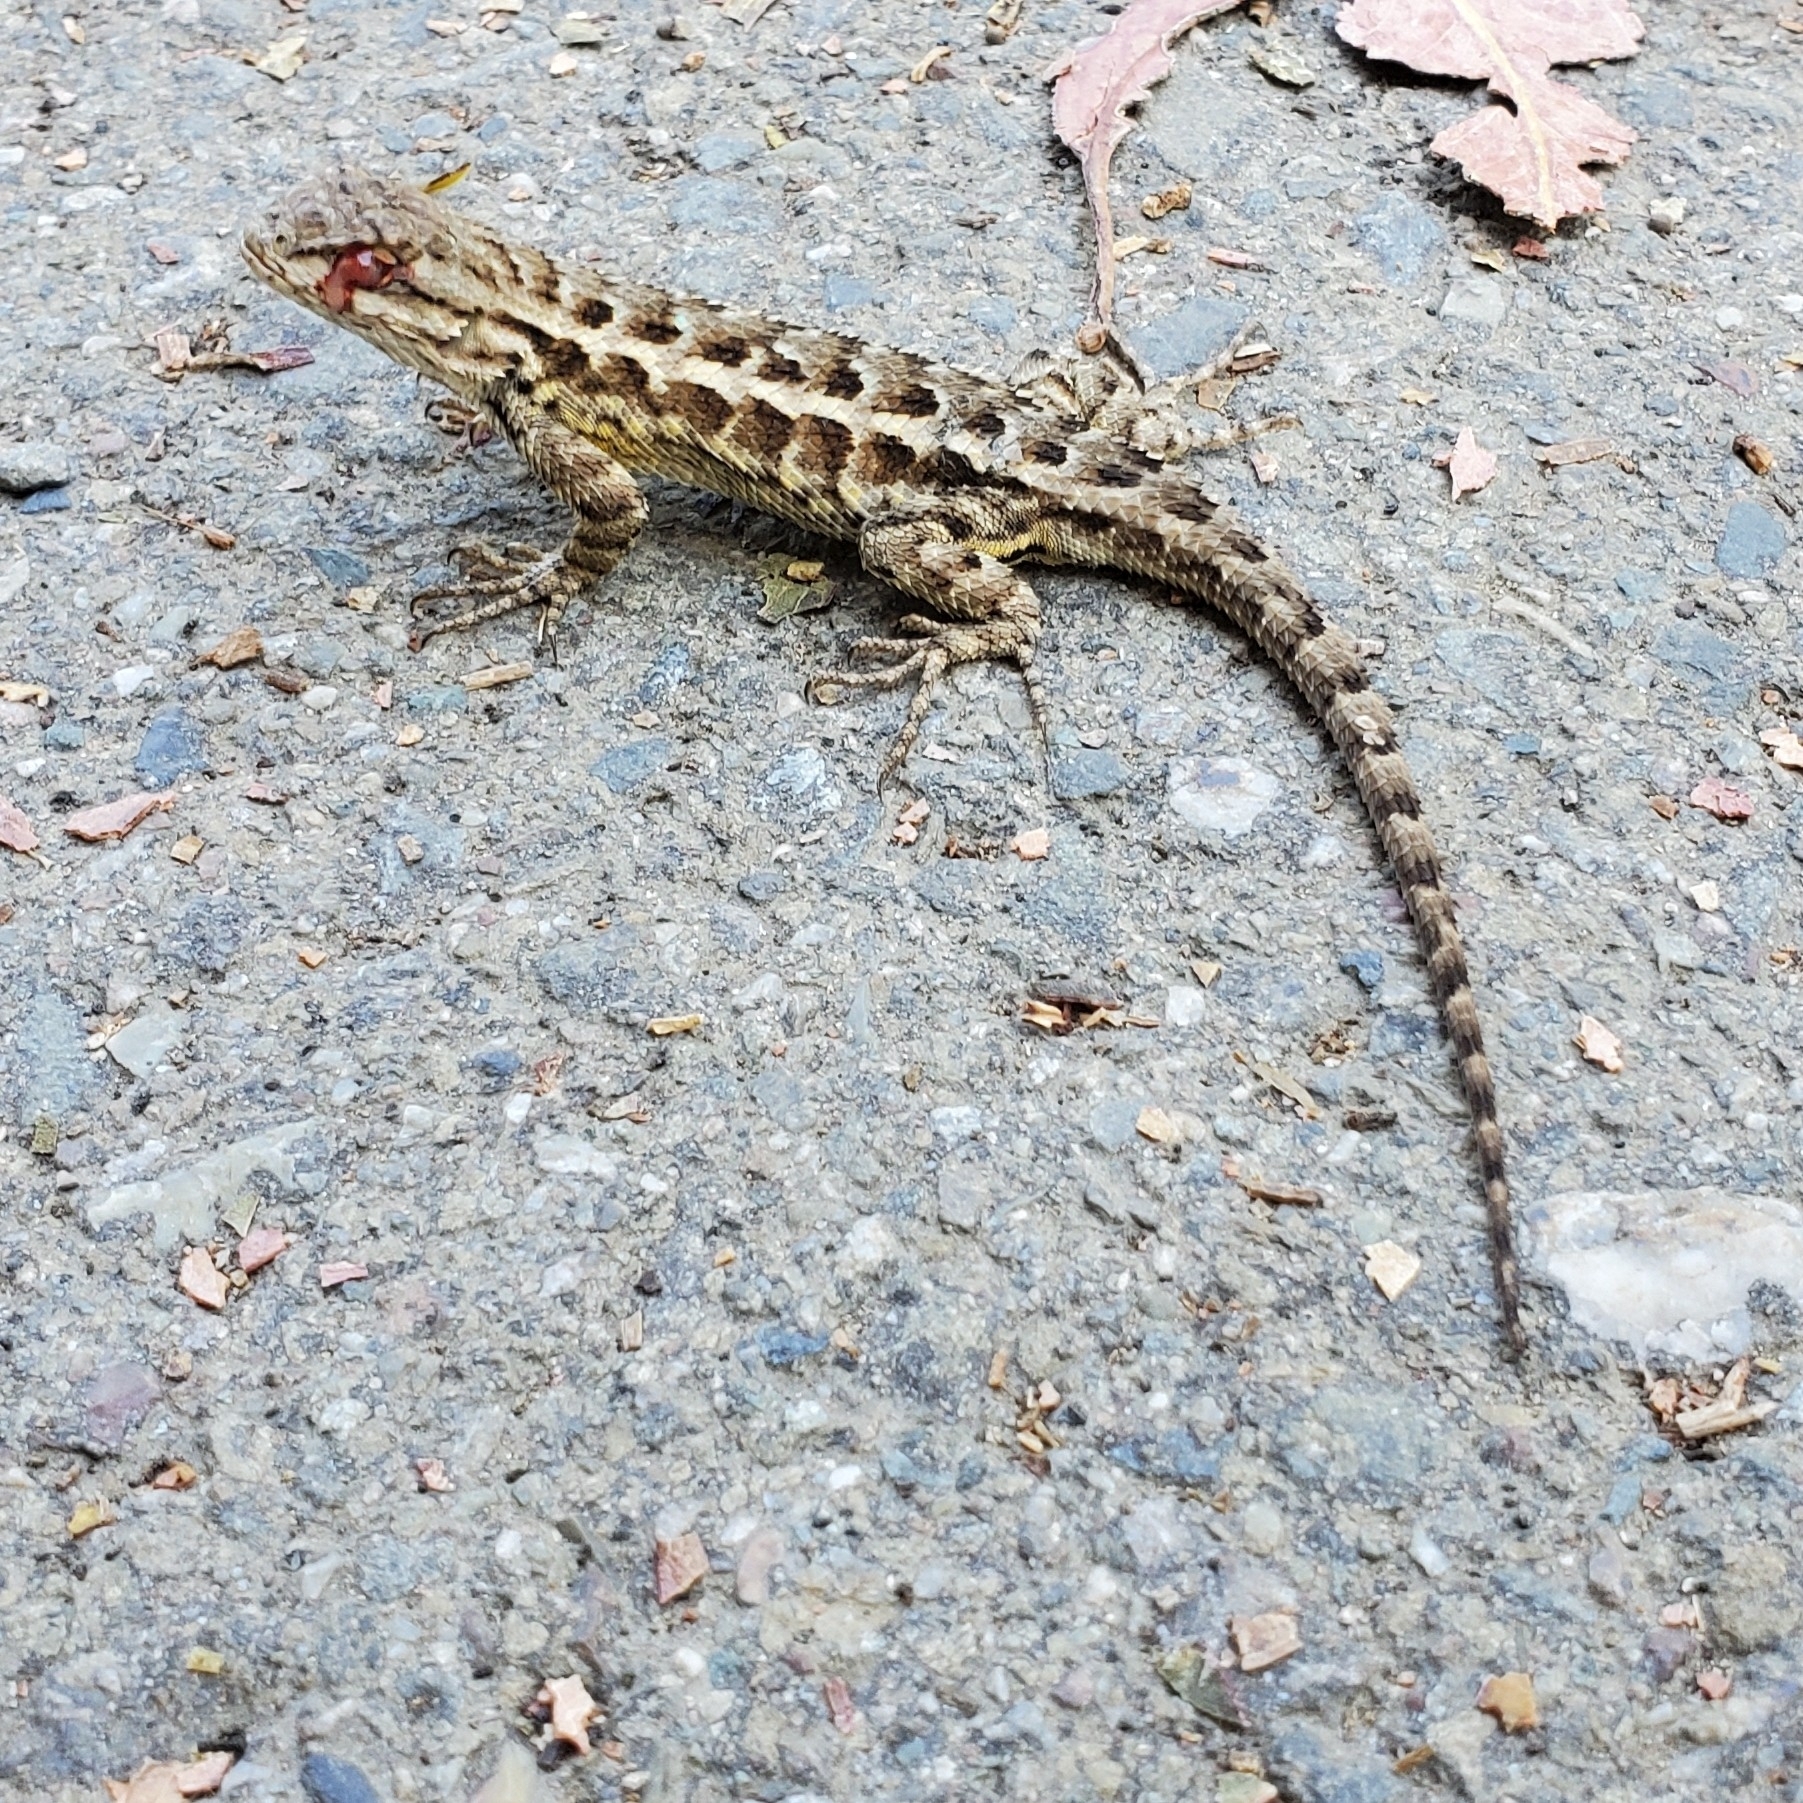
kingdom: Animalia
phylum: Chordata
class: Squamata
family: Phrynosomatidae
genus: Sceloporus
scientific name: Sceloporus occidentalis
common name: Western fence lizard
